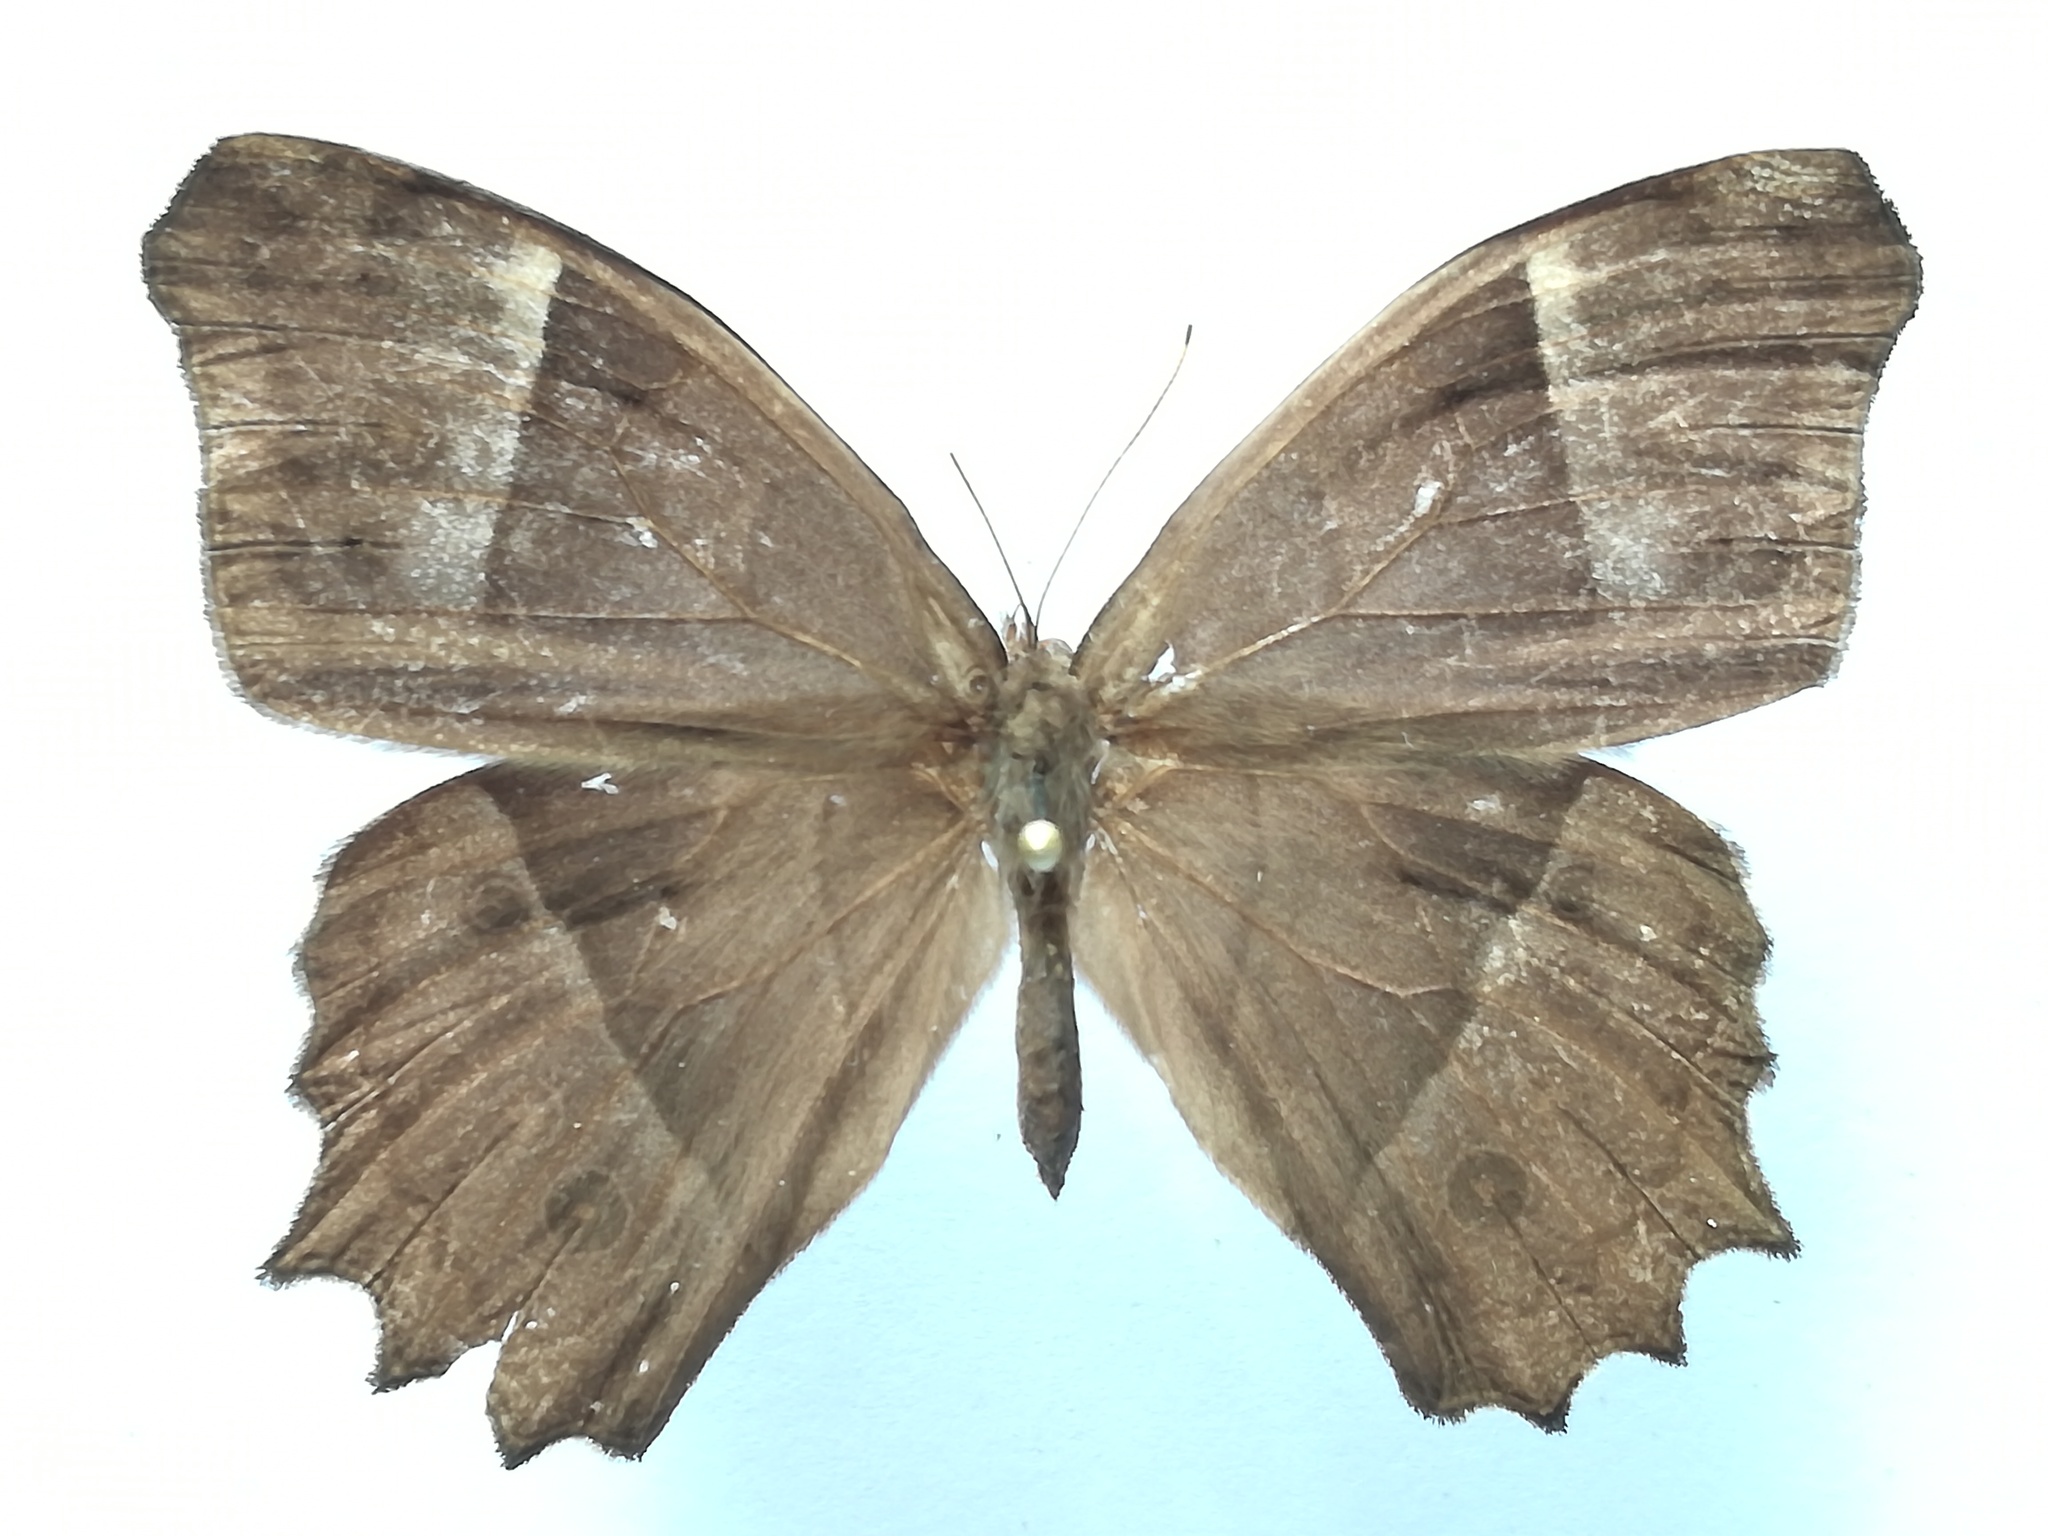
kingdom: Animalia
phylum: Arthropoda
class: Insecta
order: Lepidoptera
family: Nymphalidae
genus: Taygetis
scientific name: Taygetis andromeda
